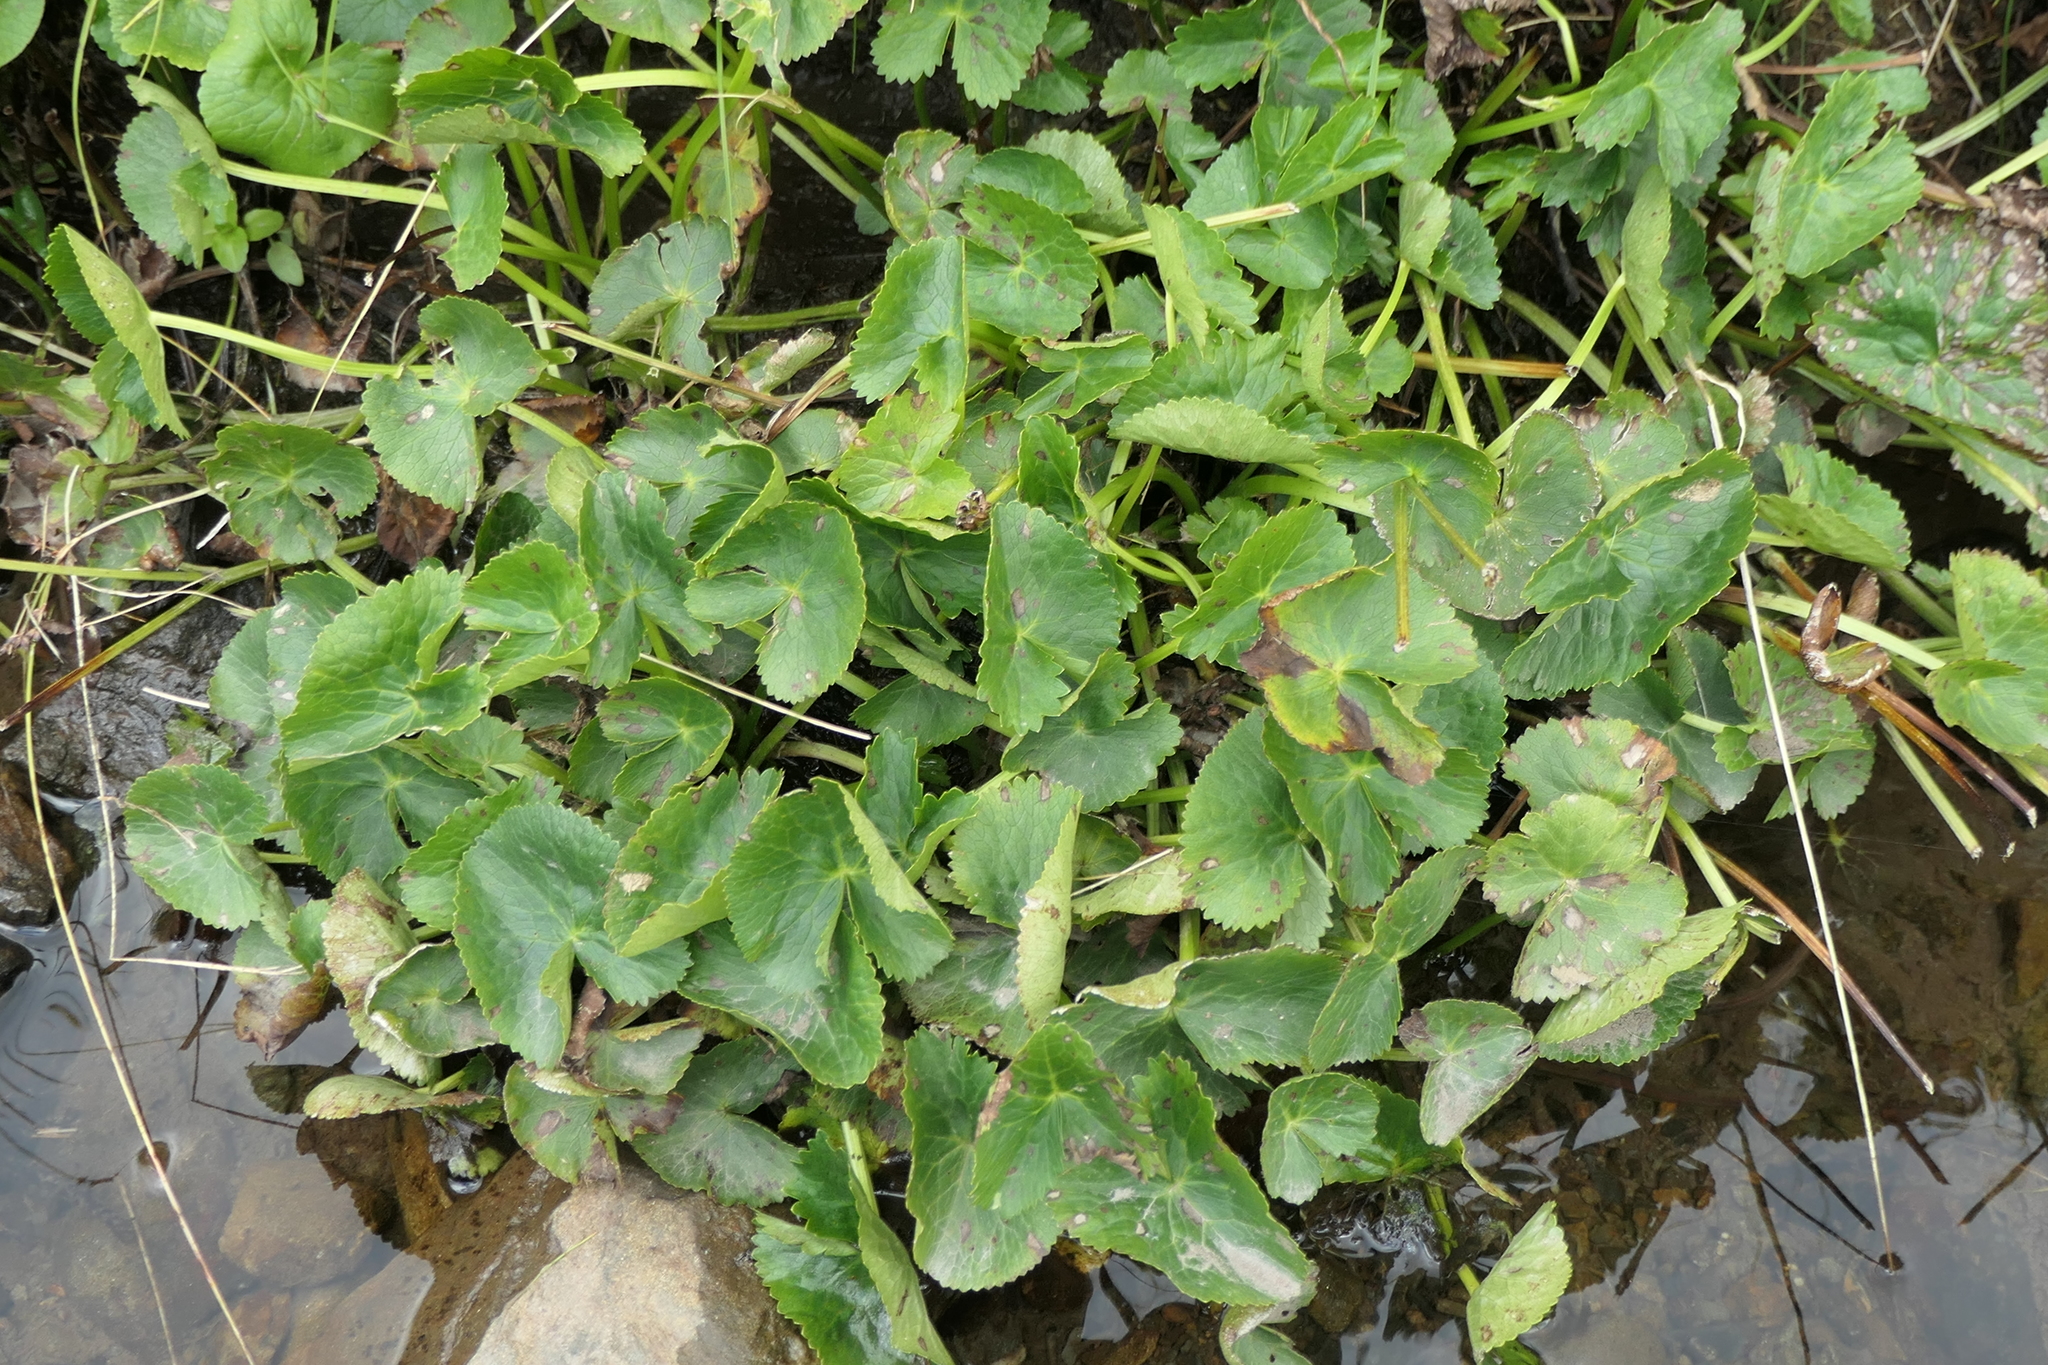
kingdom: Plantae
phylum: Tracheophyta
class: Magnoliopsida
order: Ranunculales
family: Ranunculaceae
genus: Caltha
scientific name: Caltha palustris
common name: Marsh marigold
